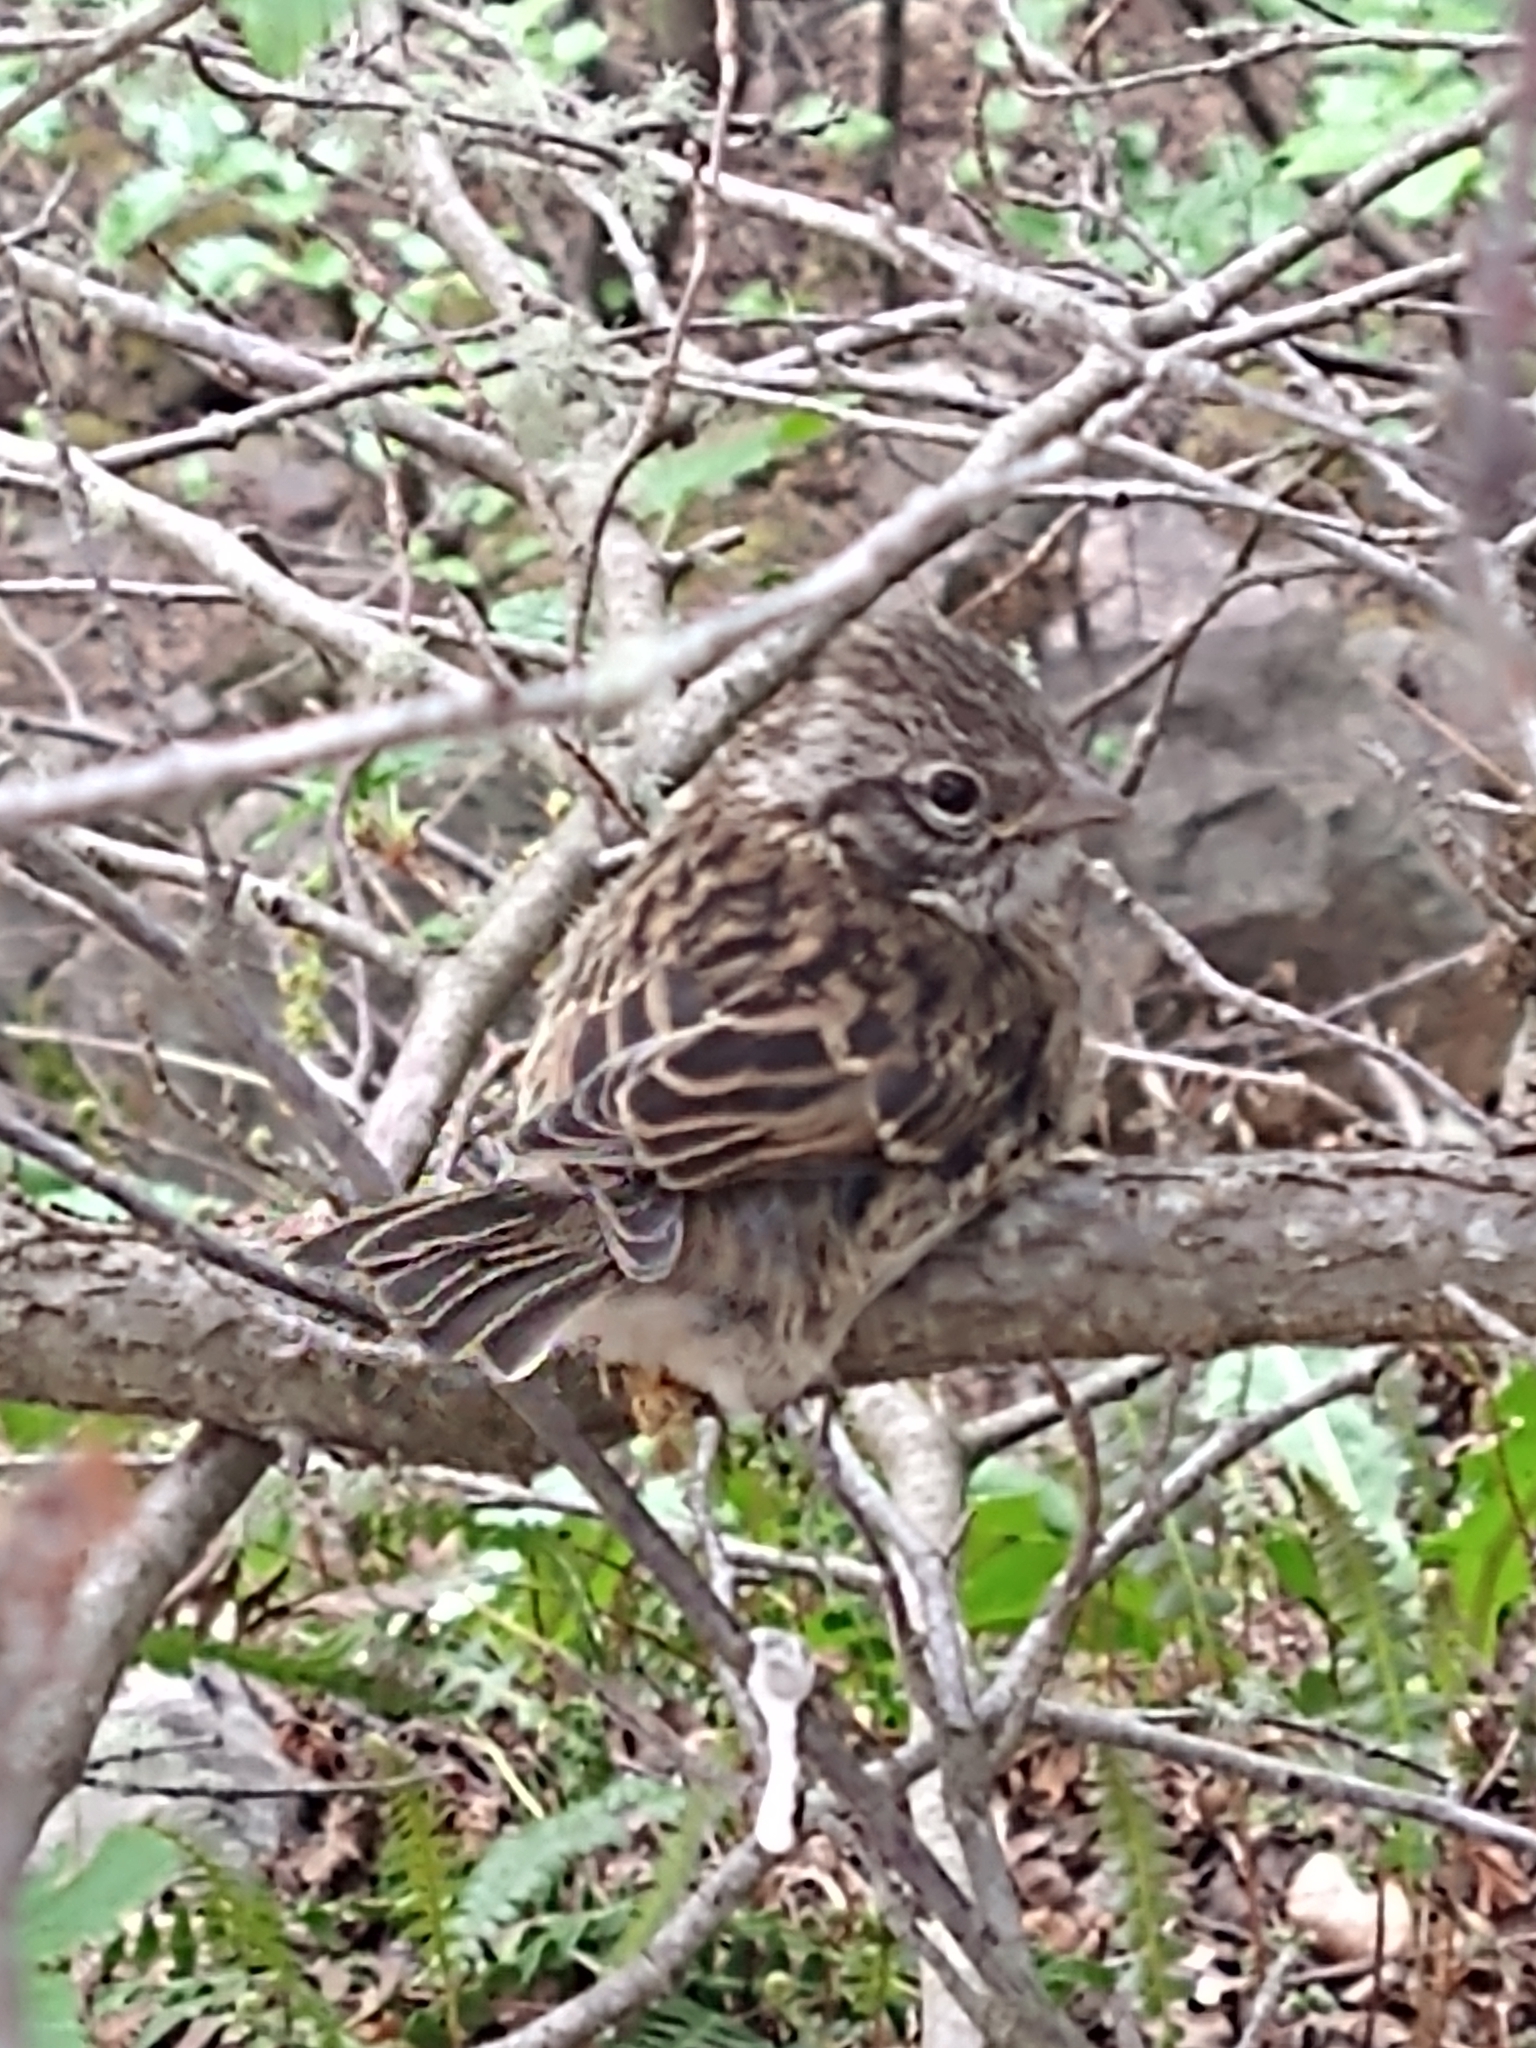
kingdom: Animalia
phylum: Chordata
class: Aves
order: Passeriformes
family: Passerellidae
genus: Zonotrichia
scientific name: Zonotrichia capensis
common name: Rufous-collared sparrow
